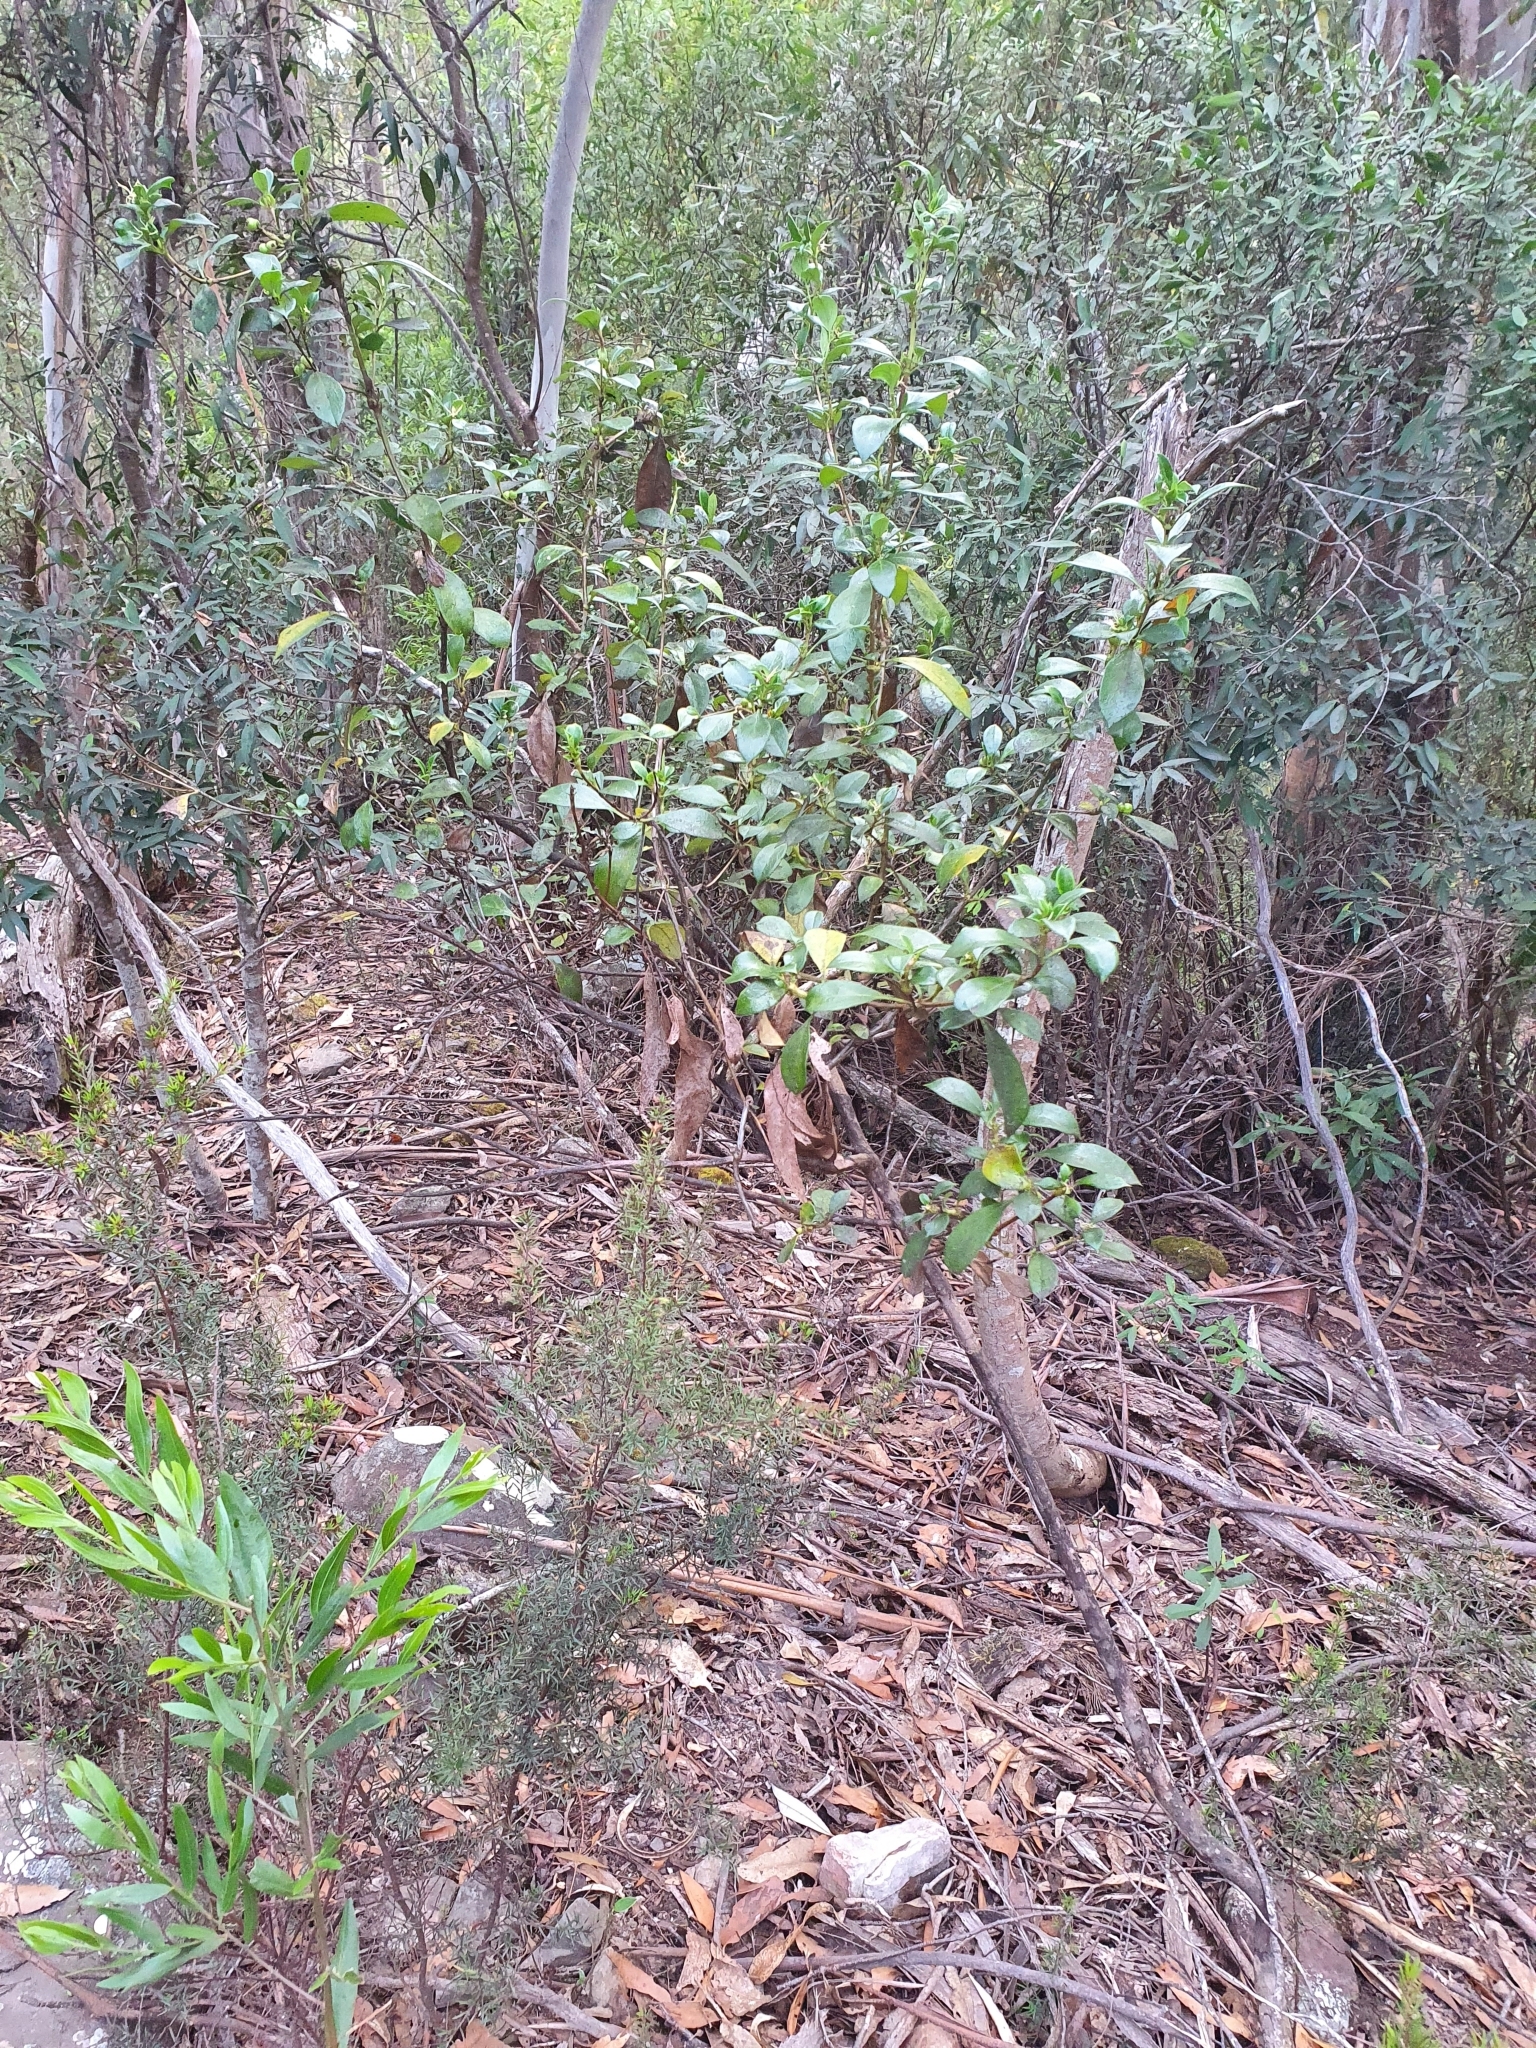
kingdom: Plantae
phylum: Tracheophyta
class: Magnoliopsida
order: Gentianales
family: Rubiaceae
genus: Coprosma
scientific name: Coprosma hirtella
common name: Rough coprosma
